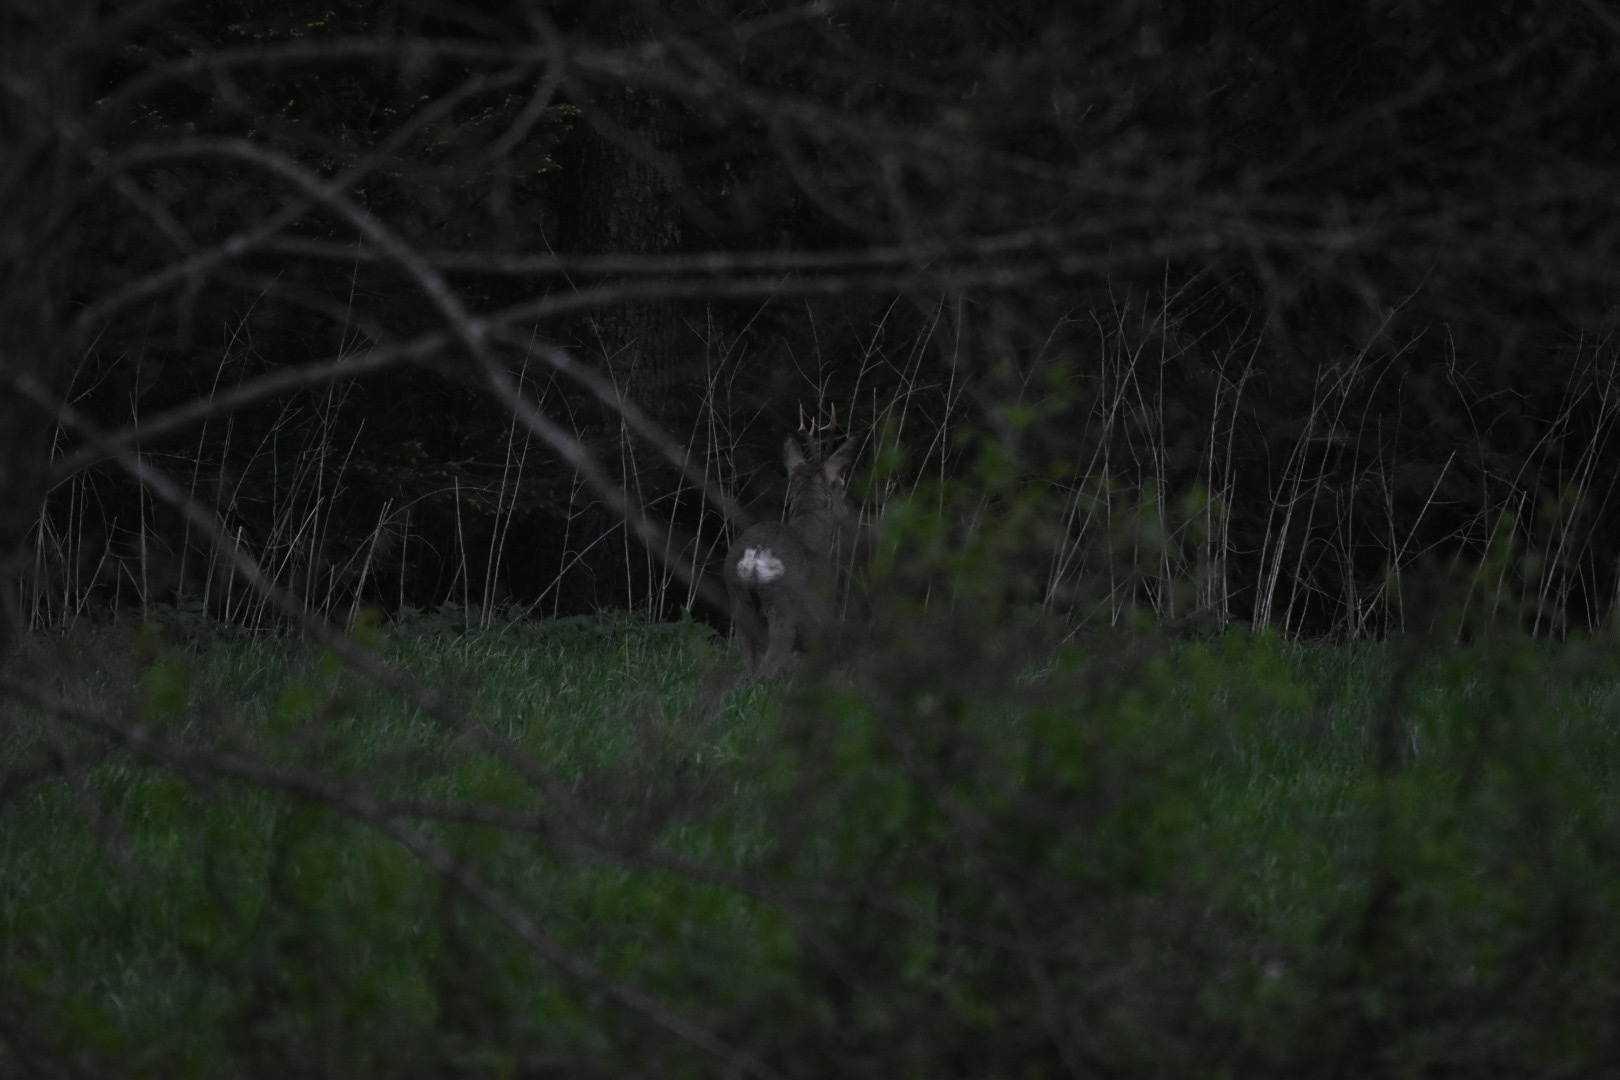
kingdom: Animalia
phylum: Chordata
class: Mammalia
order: Artiodactyla
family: Cervidae
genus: Capreolus
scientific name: Capreolus capreolus
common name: Western roe deer
